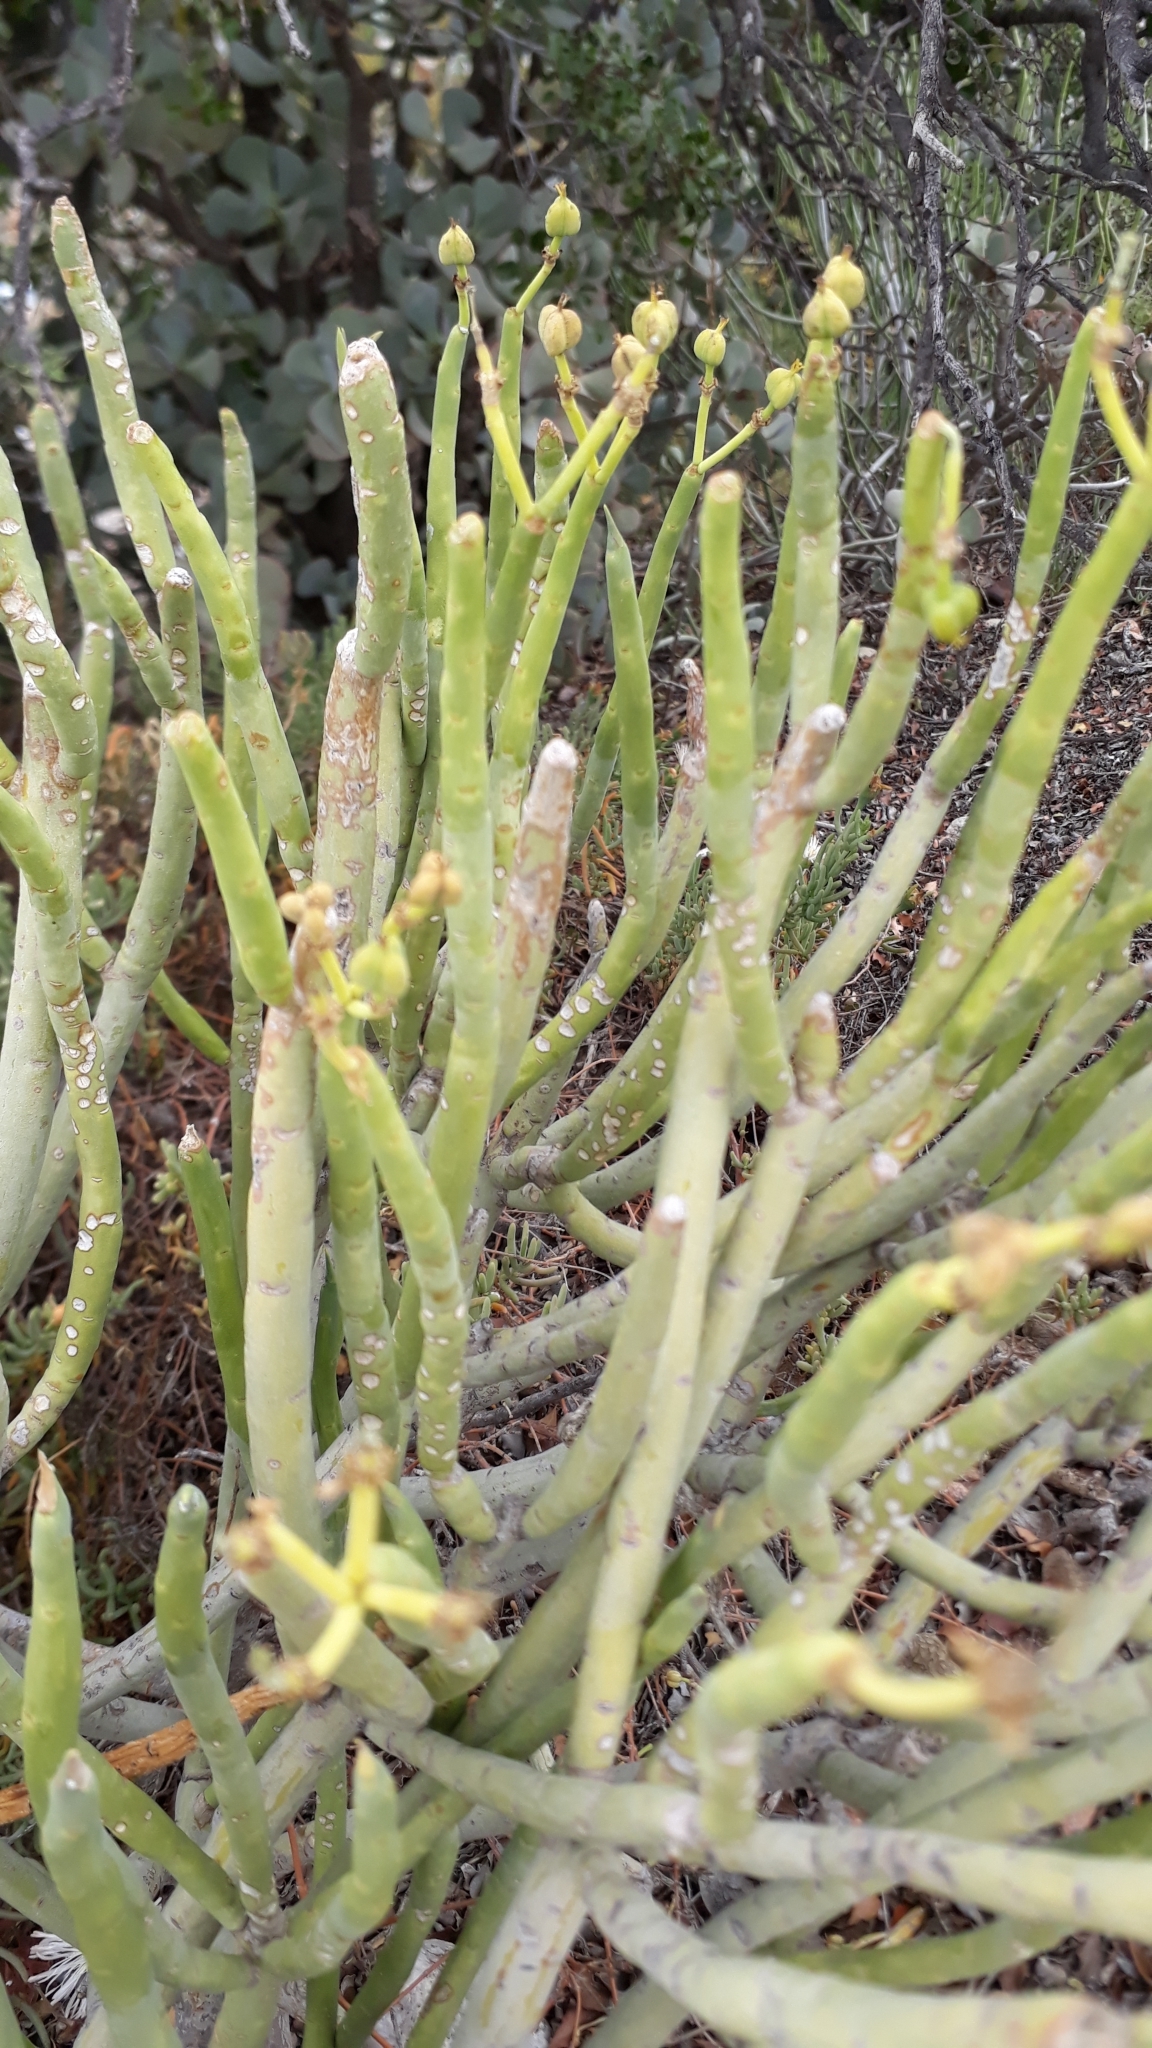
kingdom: Plantae
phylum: Tracheophyta
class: Magnoliopsida
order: Malpighiales
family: Euphorbiaceae
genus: Euphorbia
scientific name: Euphorbia mauritanica
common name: Jackal's-food
